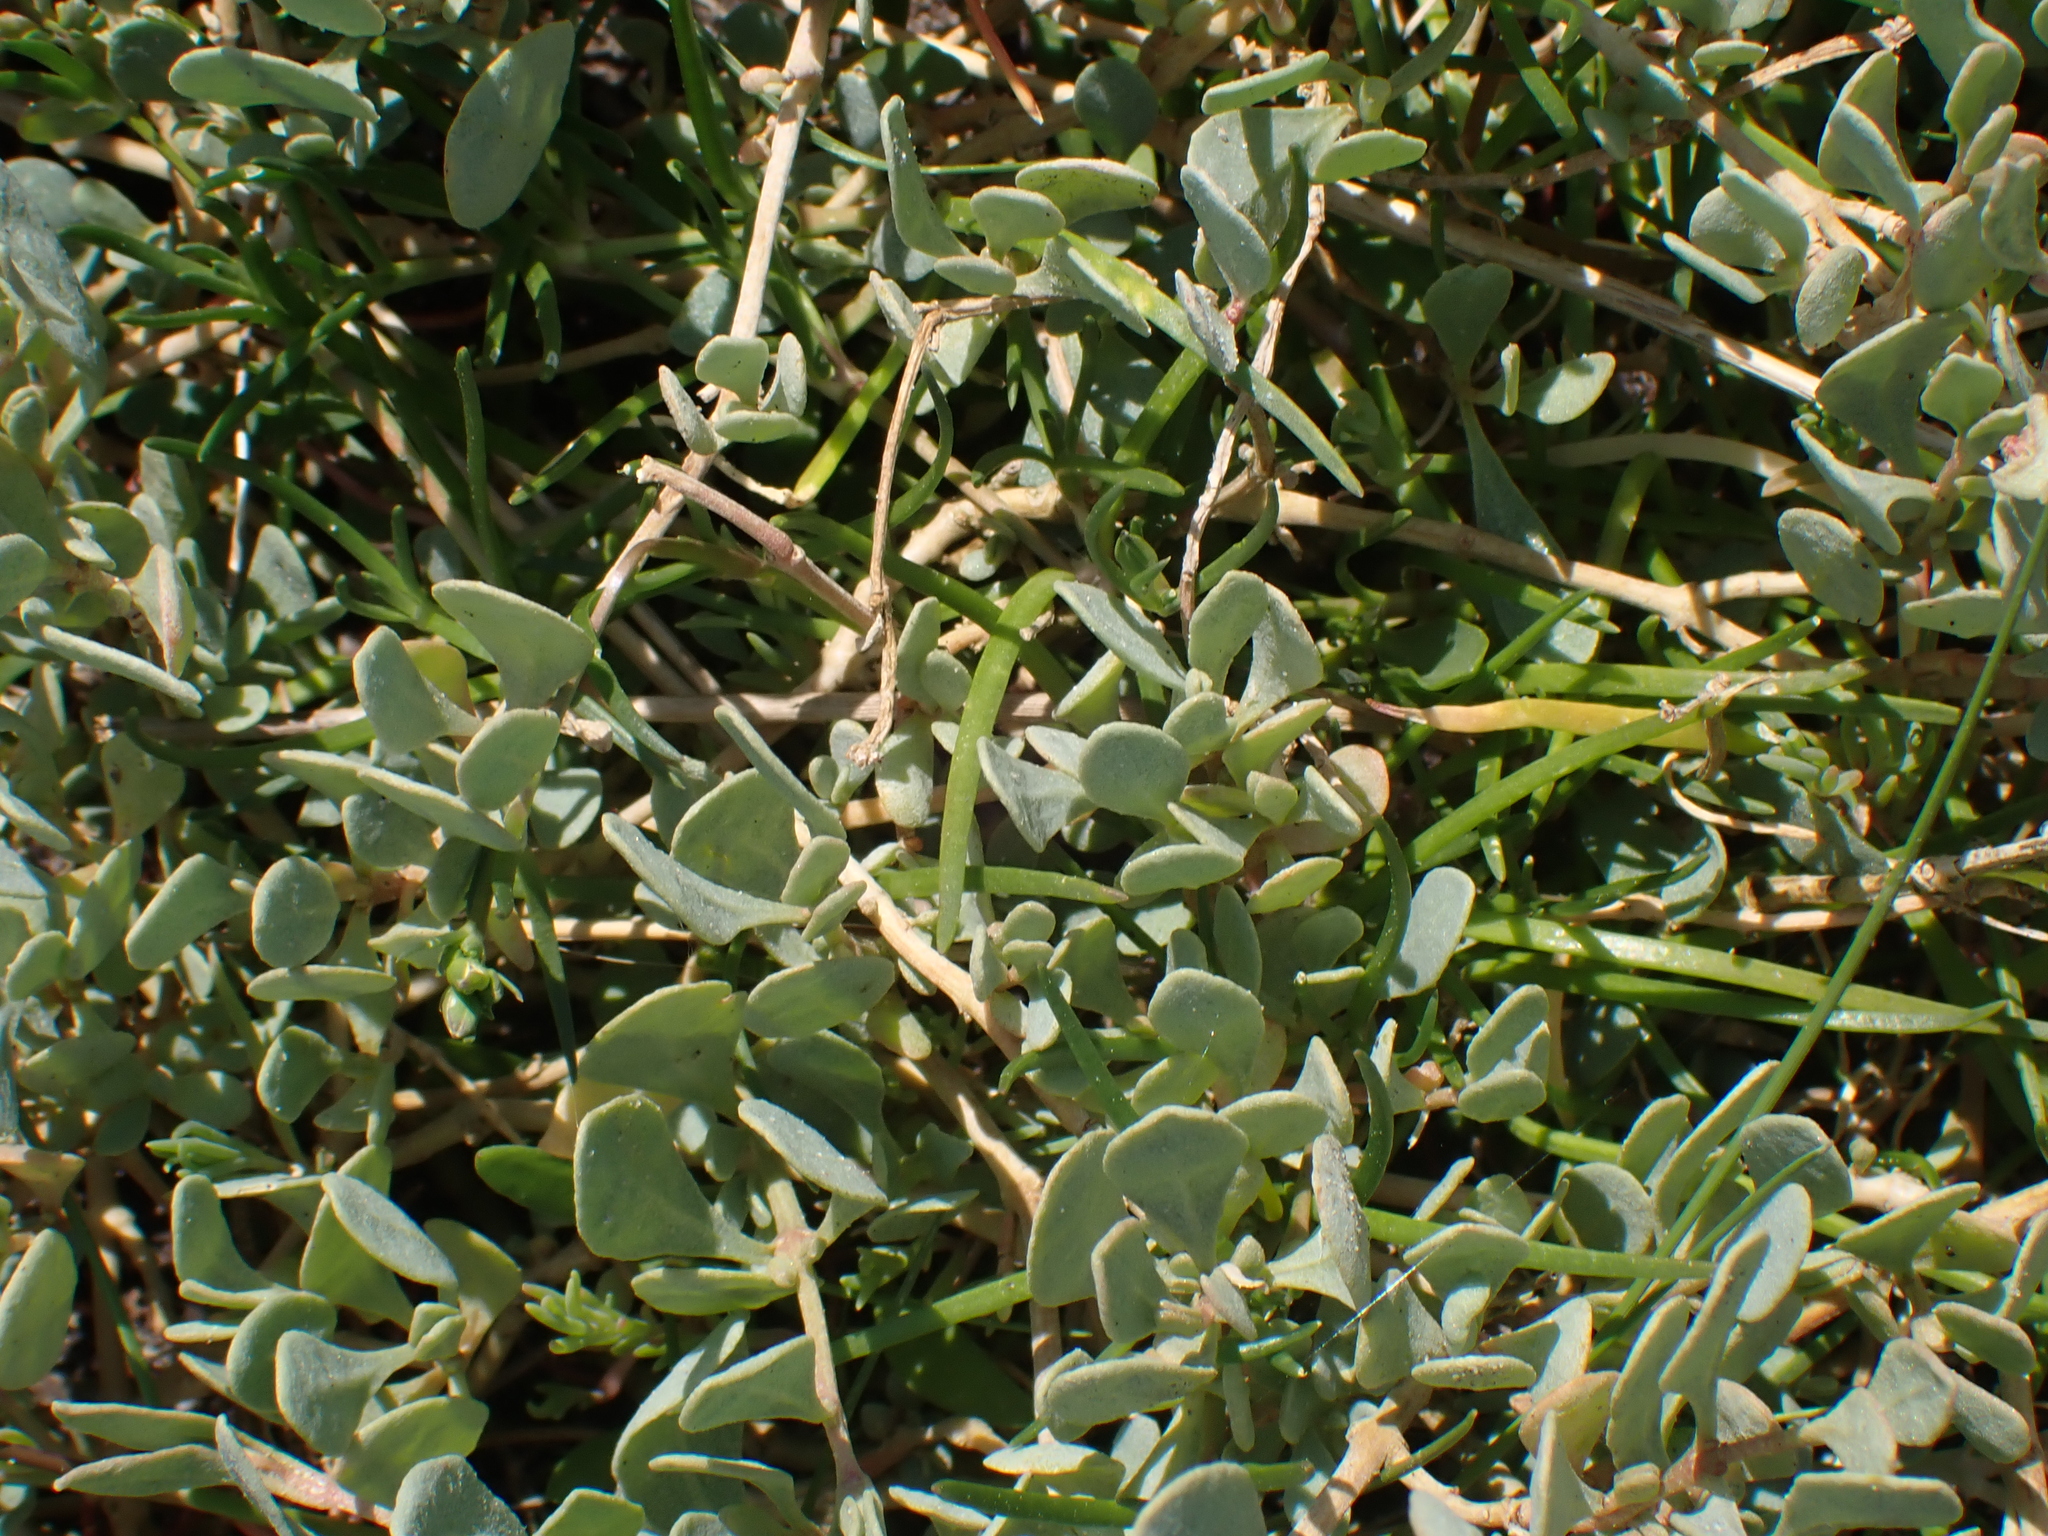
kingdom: Plantae
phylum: Tracheophyta
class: Magnoliopsida
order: Caryophyllales
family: Amaranthaceae
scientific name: Amaranthaceae
